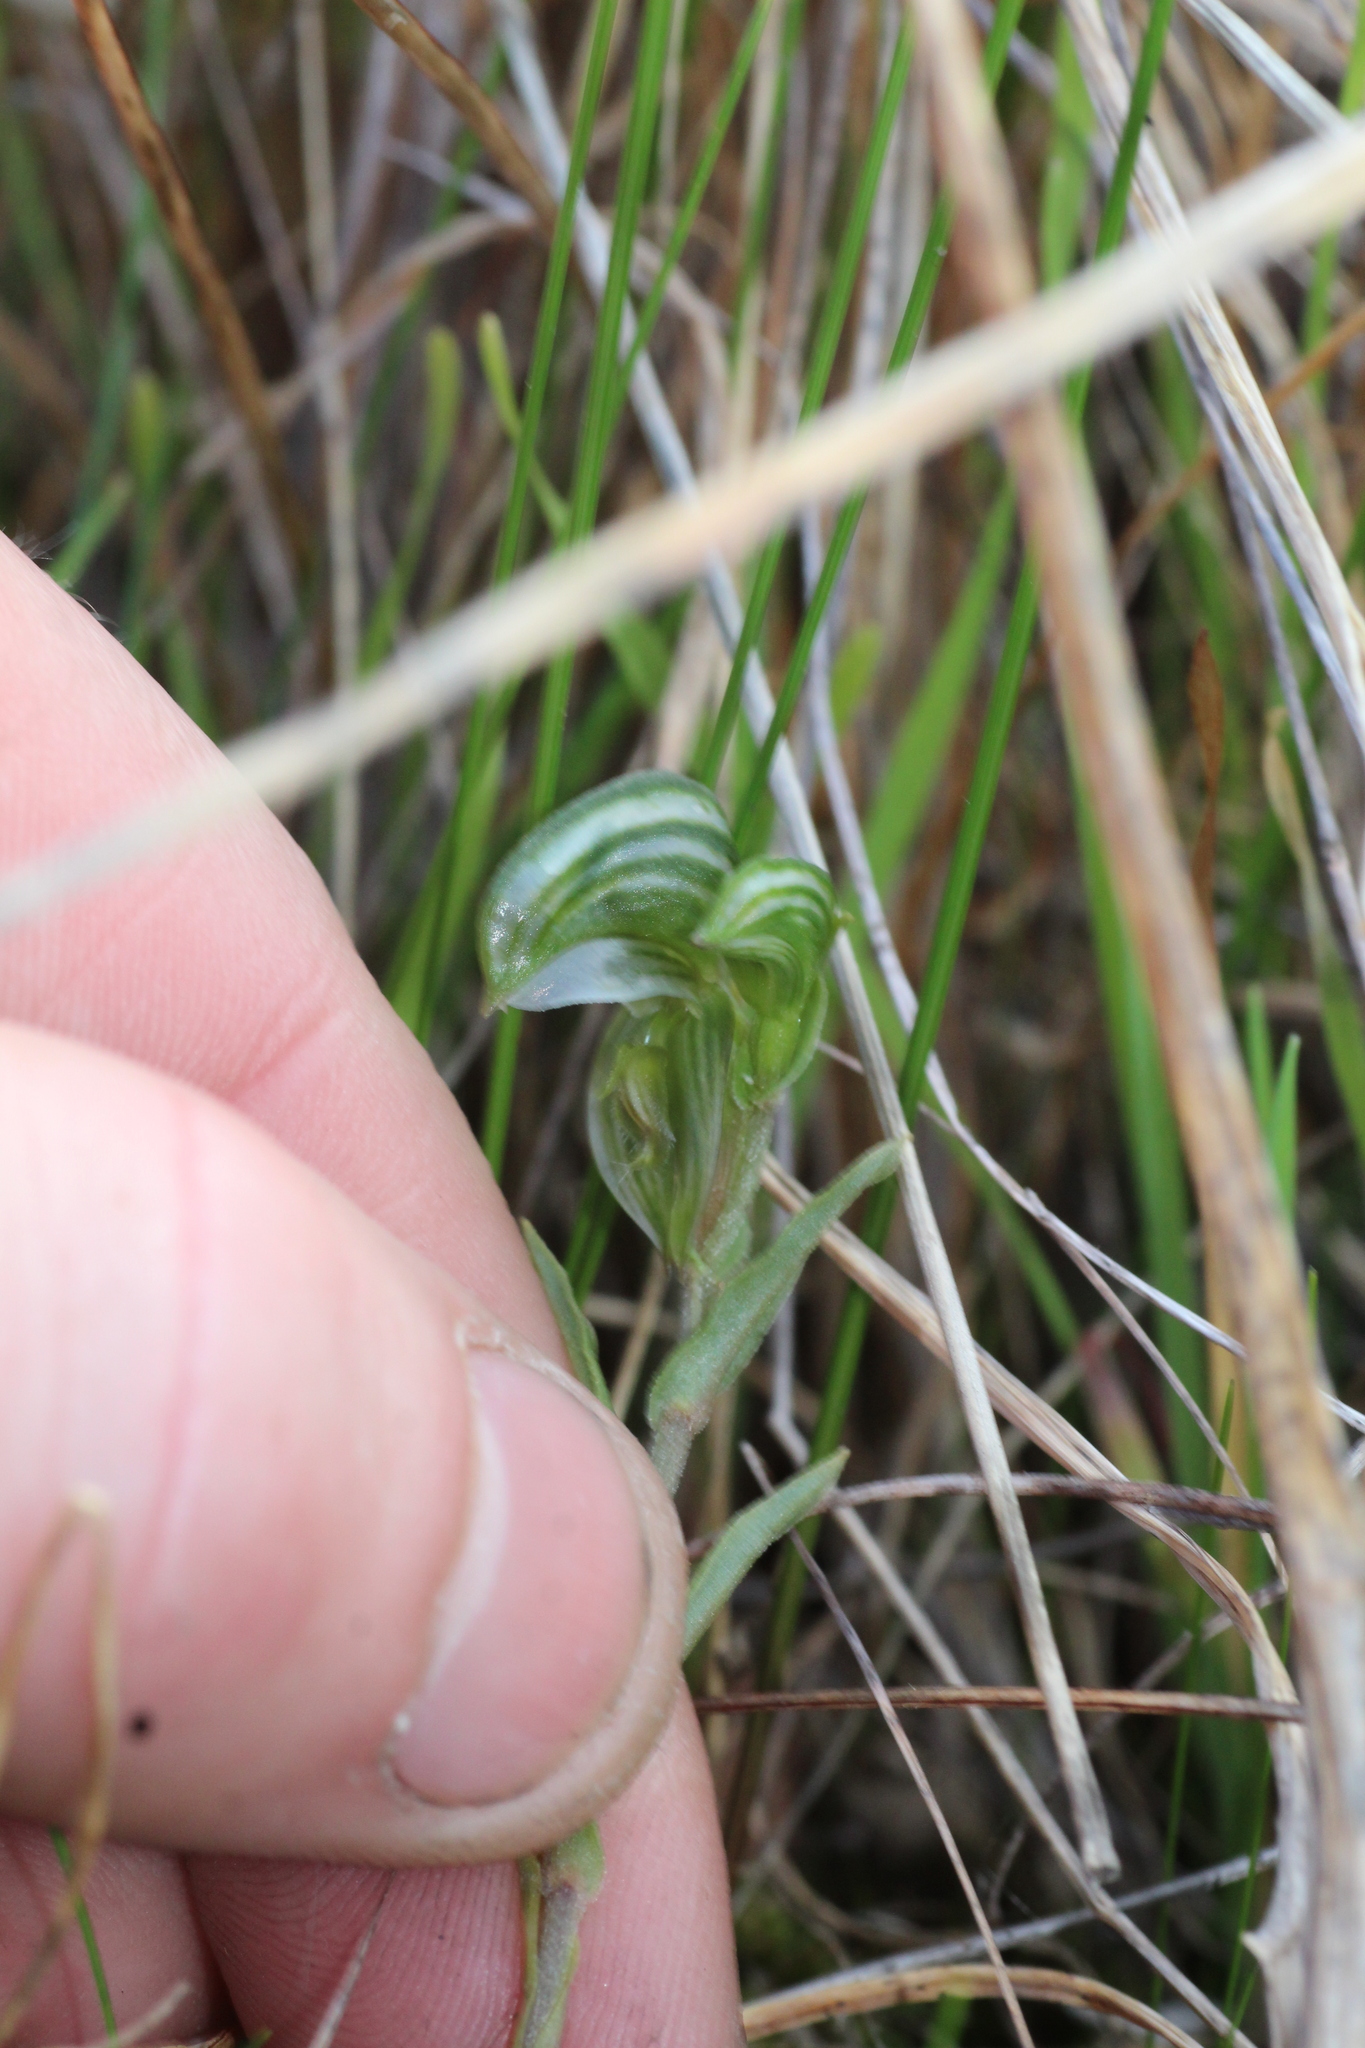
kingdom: Plantae
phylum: Tracheophyta
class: Liliopsida
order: Asparagales
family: Orchidaceae
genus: Pterostylis
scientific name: Pterostylis vittata
